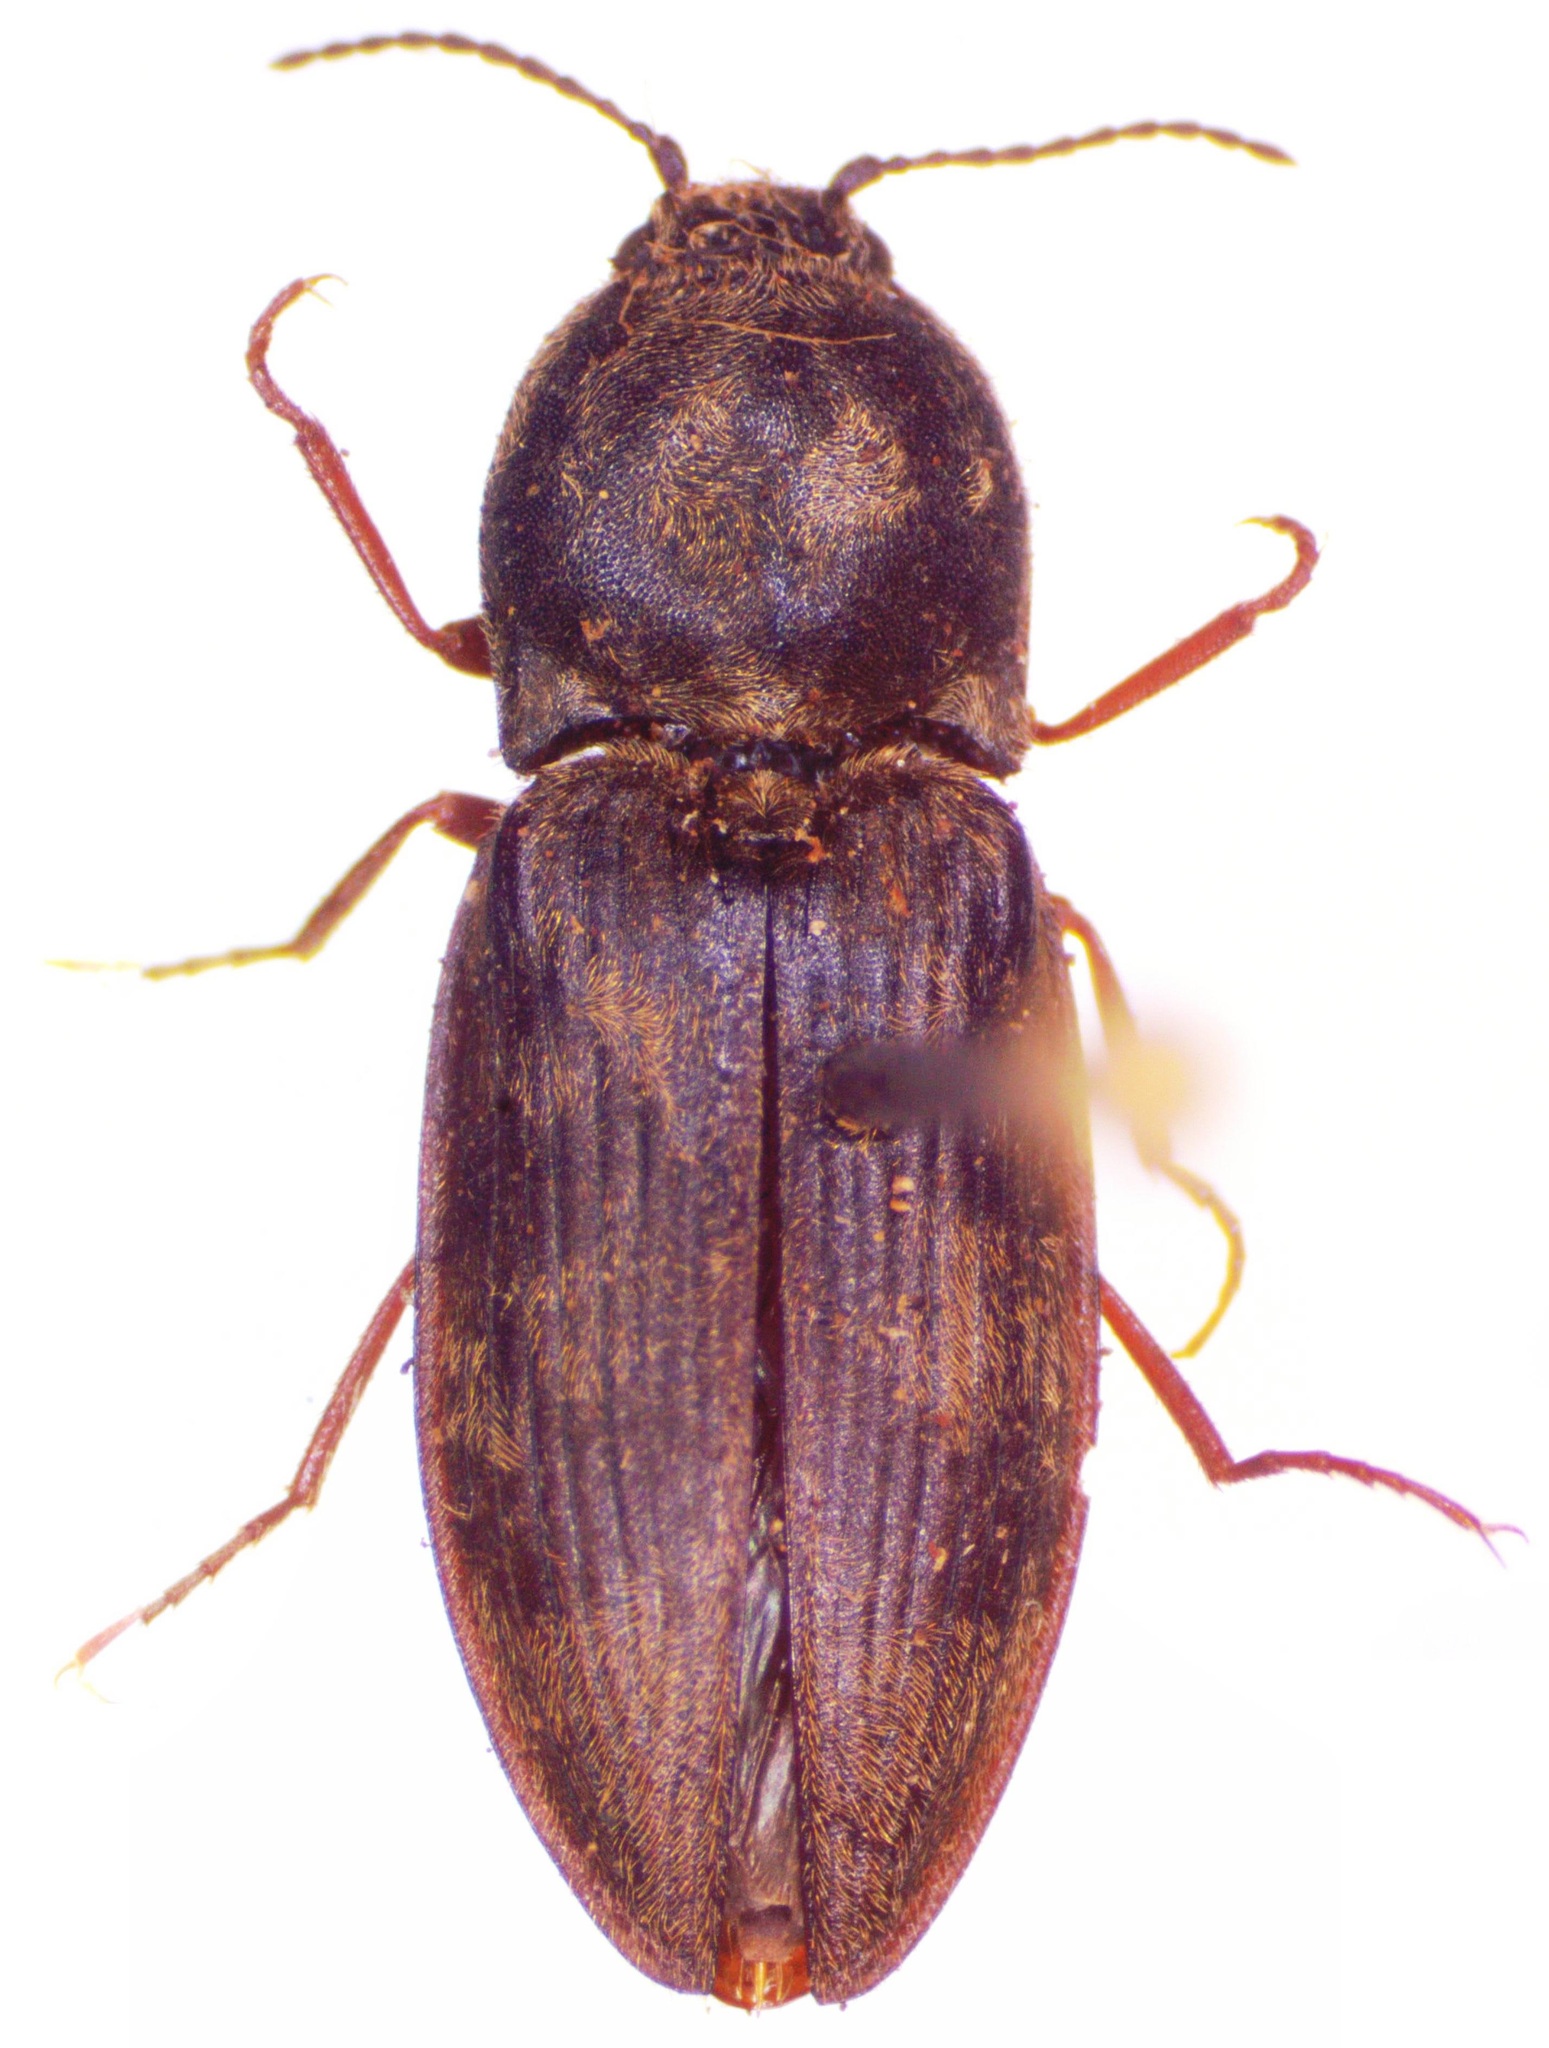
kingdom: Animalia
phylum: Arthropoda
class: Insecta
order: Coleoptera
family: Elateridae
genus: Prosternon
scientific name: Prosternon tessellatum
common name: Chequered click beetle
